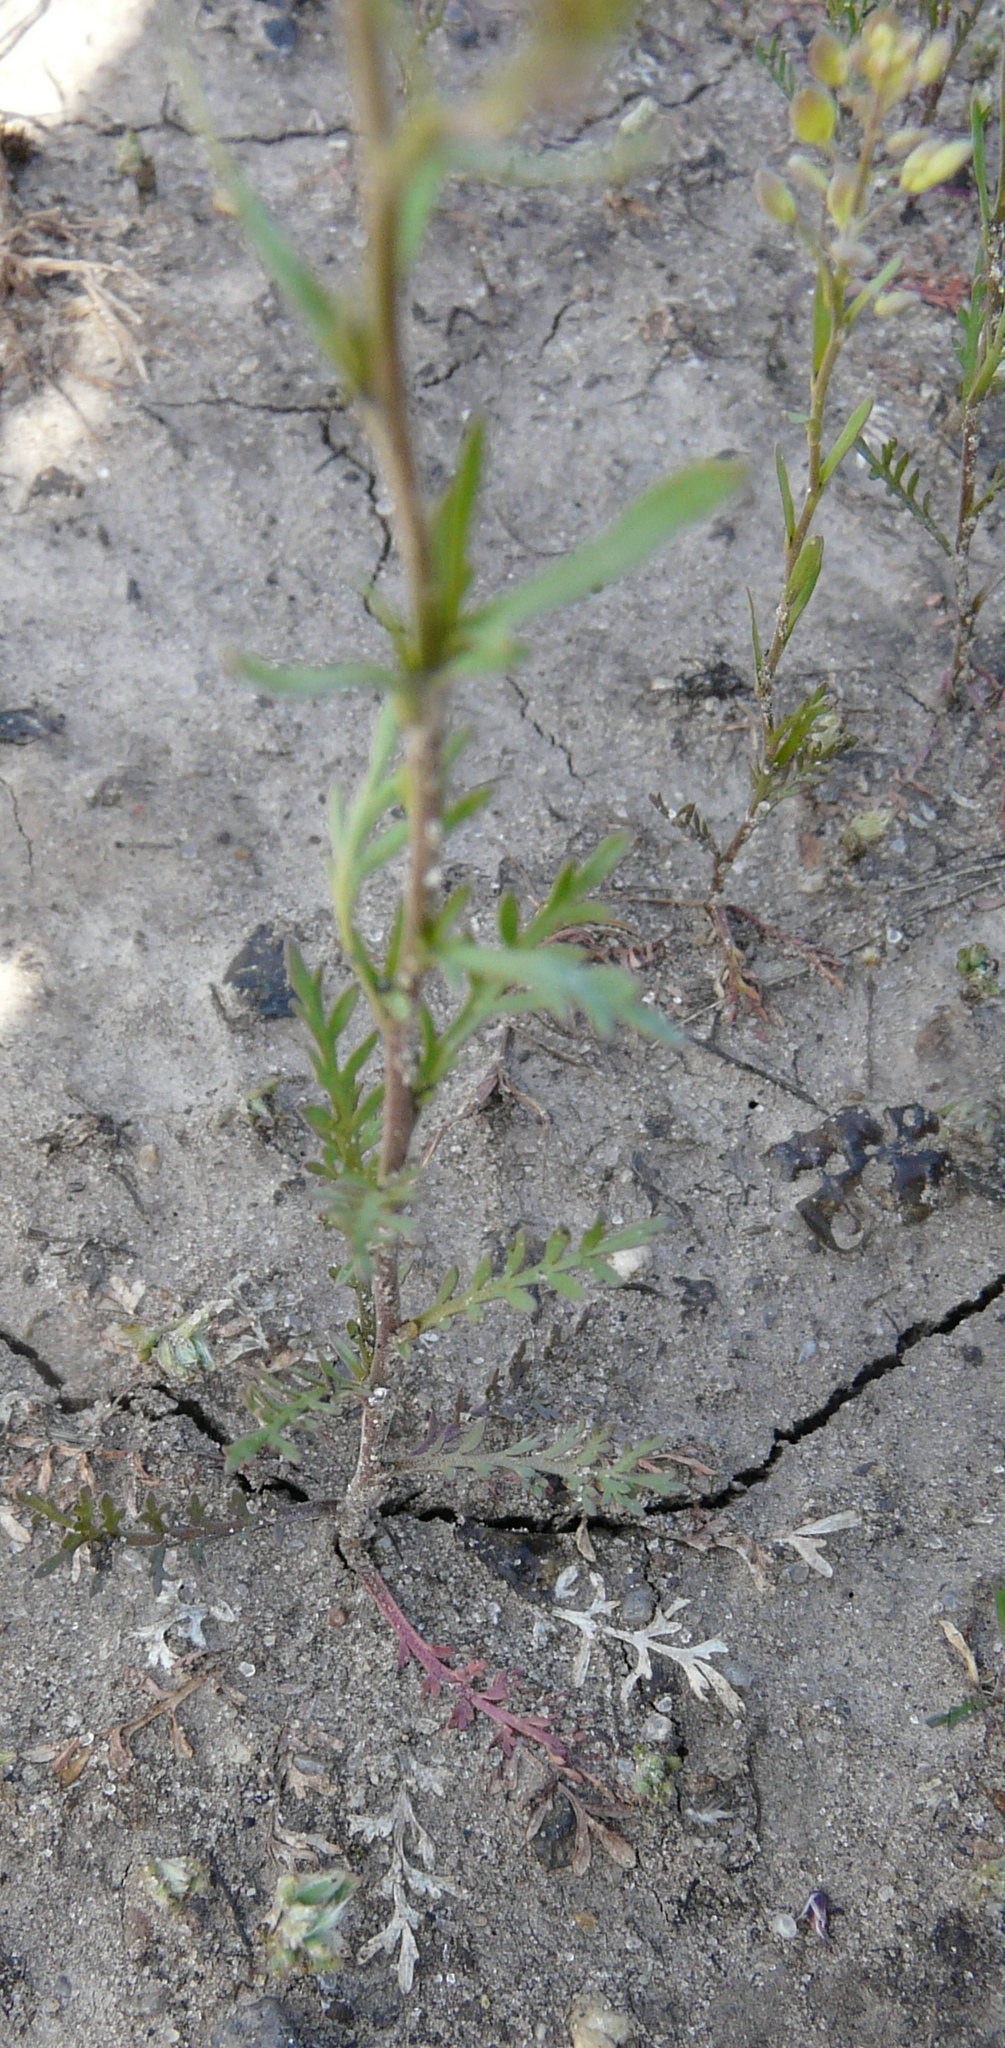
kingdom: Plantae
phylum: Tracheophyta
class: Magnoliopsida
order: Brassicales
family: Brassicaceae
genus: Lepidium
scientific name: Lepidium ruderale
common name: Narrow-leaved pepperwort
